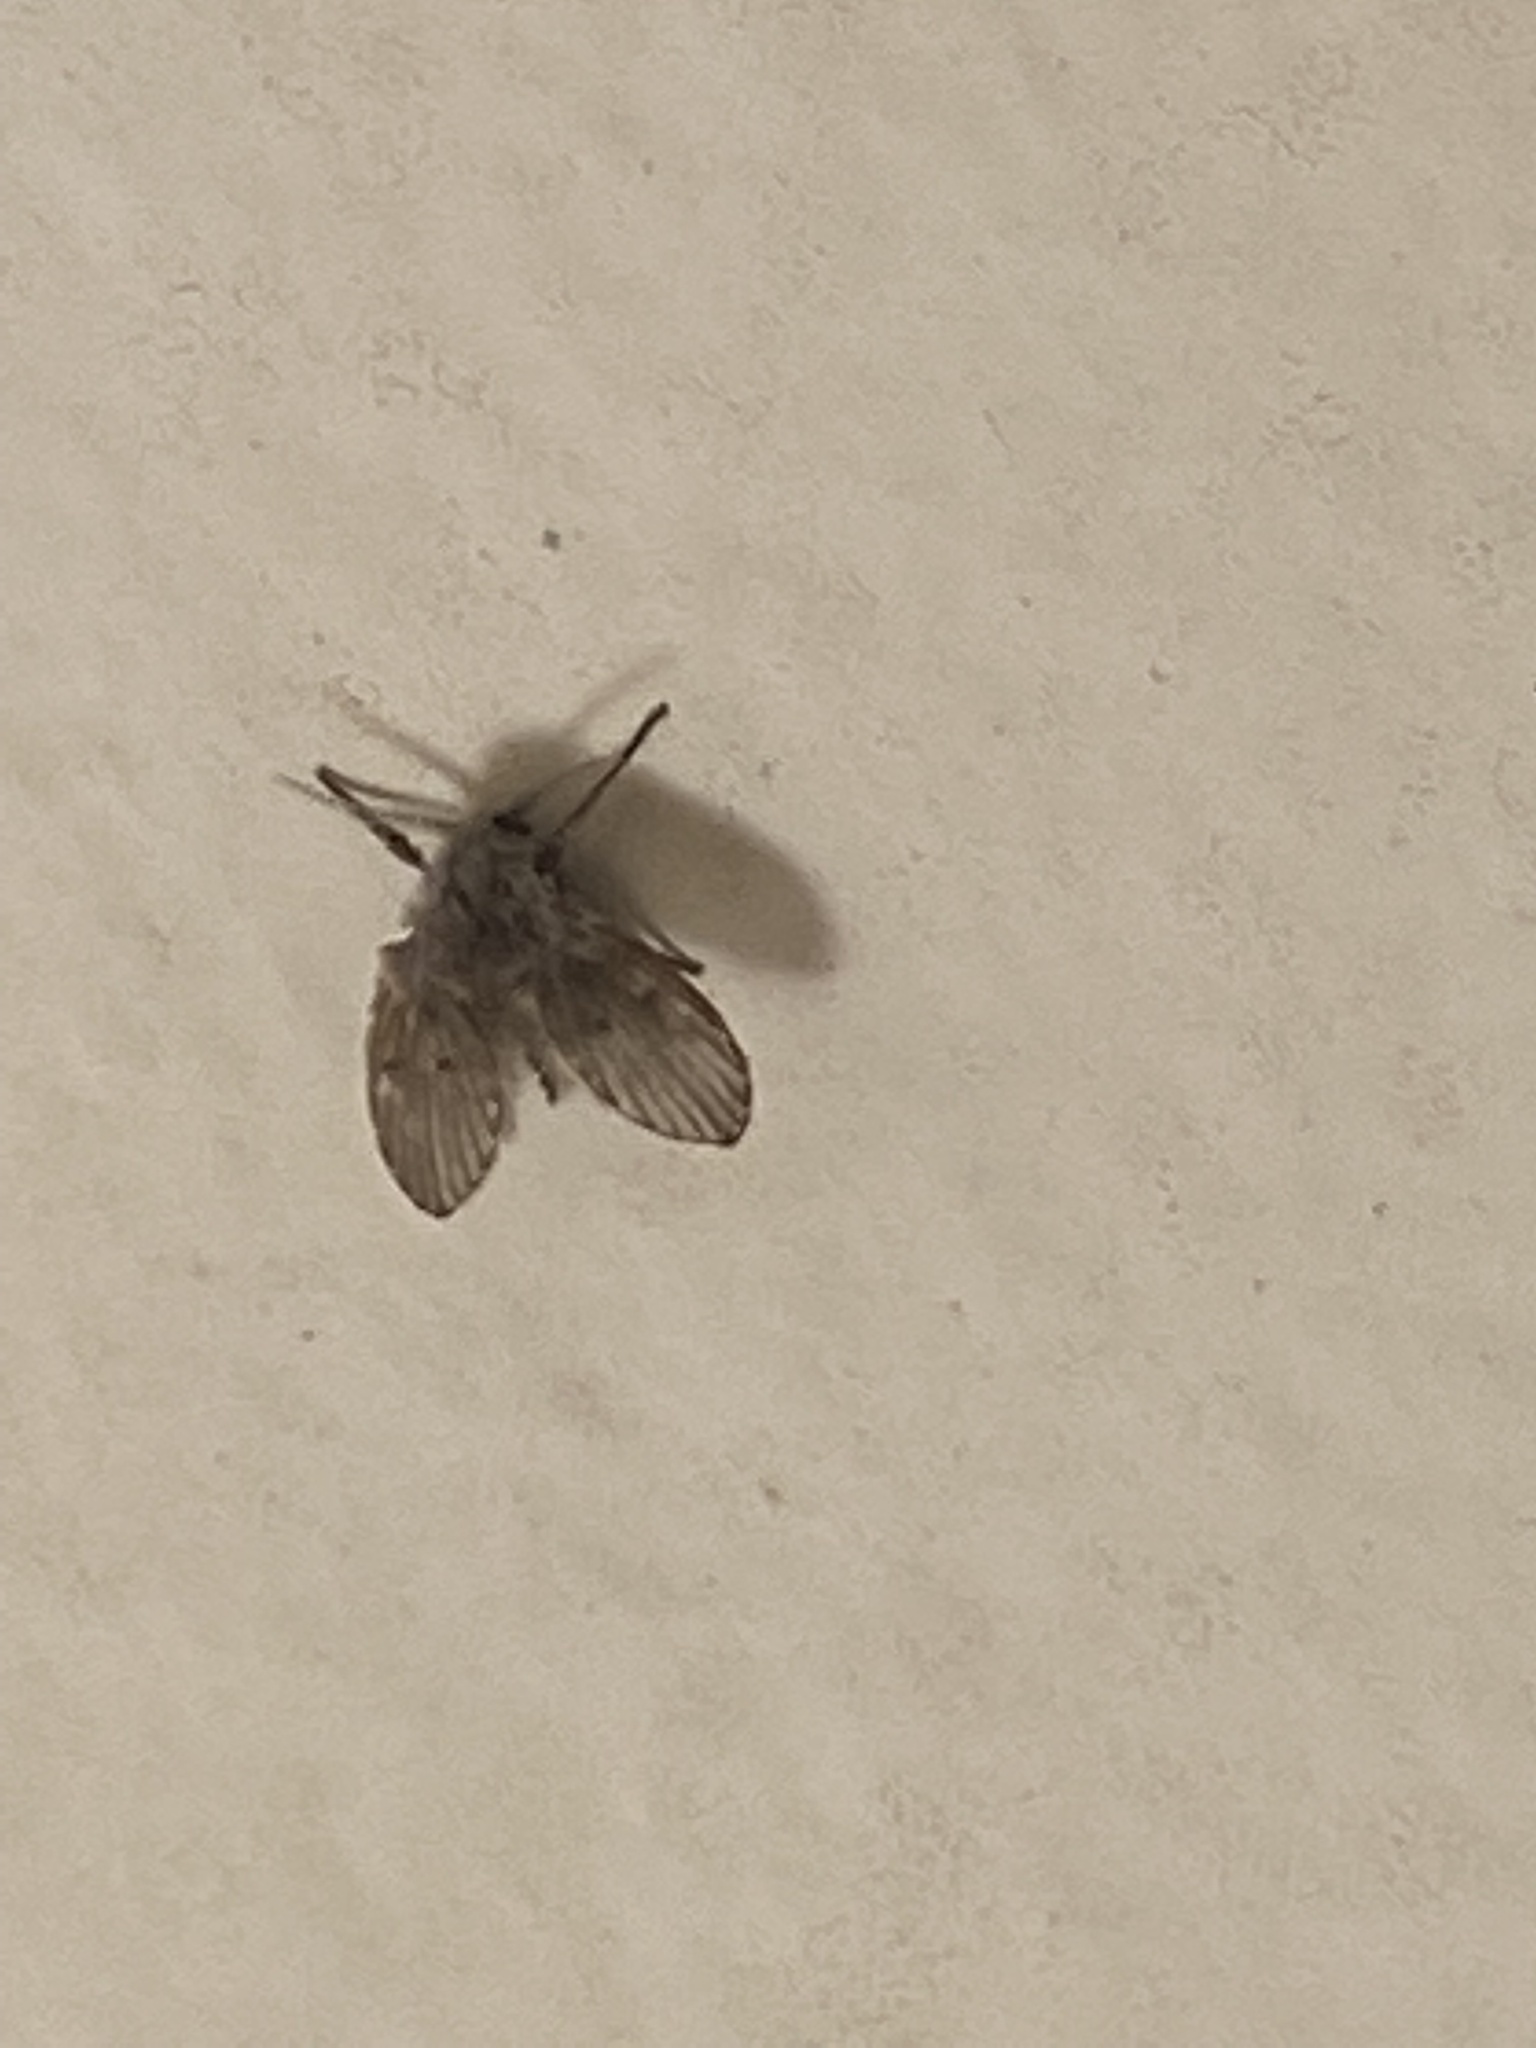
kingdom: Animalia
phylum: Arthropoda
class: Insecta
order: Diptera
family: Psychodidae
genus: Clogmia
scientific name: Clogmia albipunctatus
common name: White-spotted moth fly
